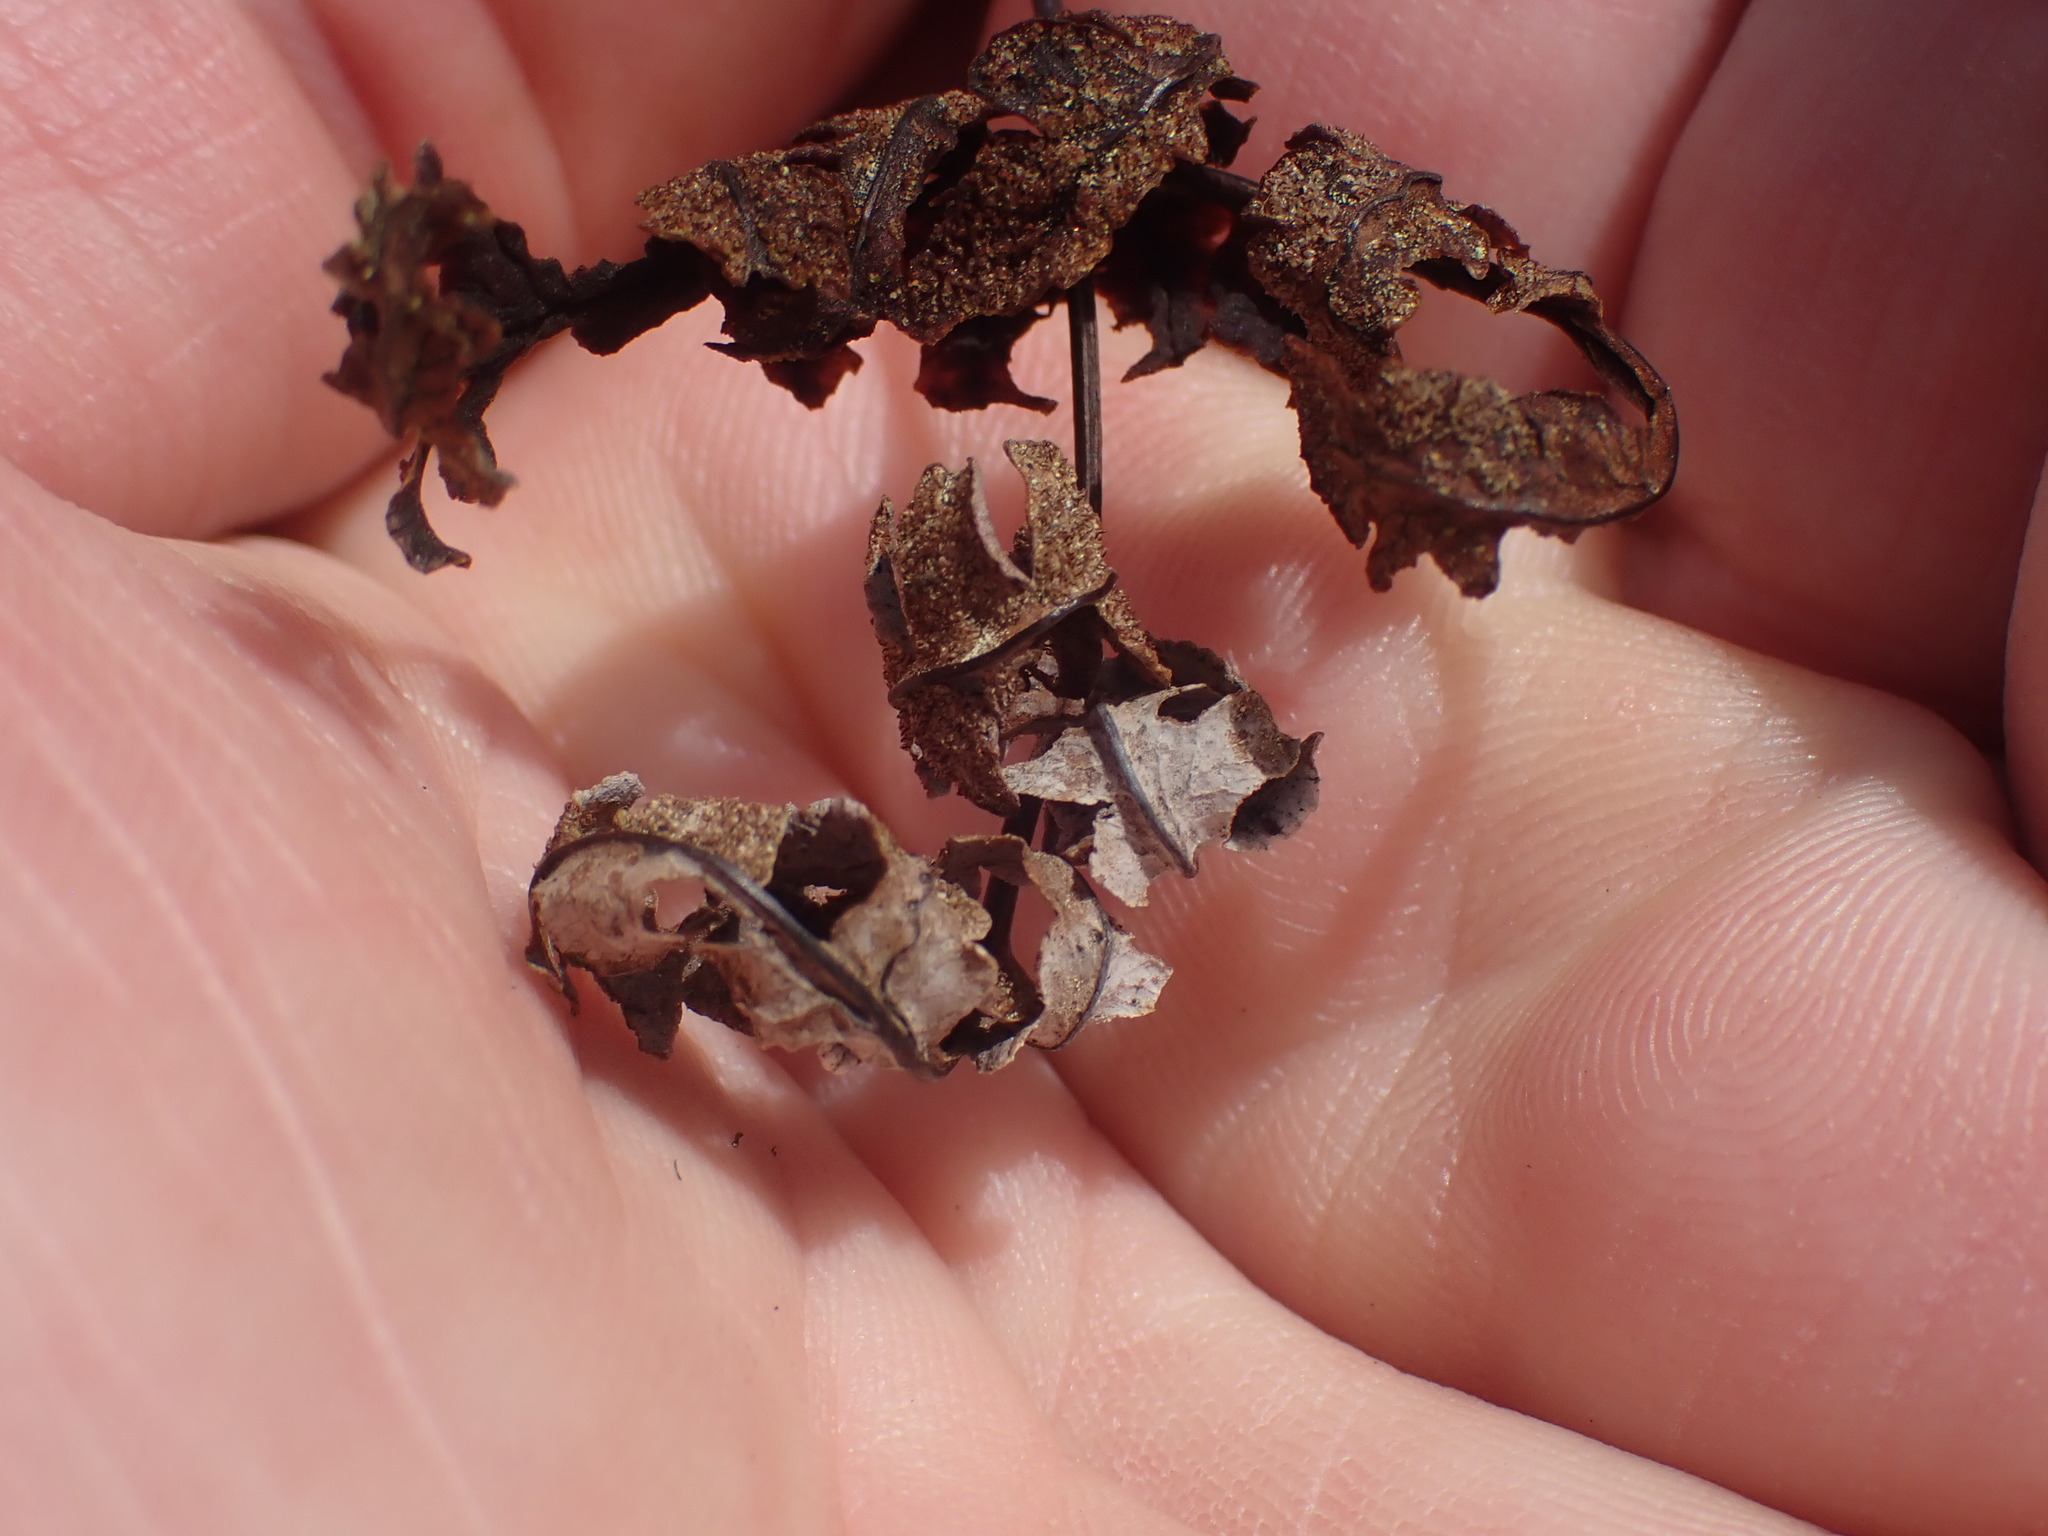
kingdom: Plantae
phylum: Tracheophyta
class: Polypodiopsida
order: Polypodiales
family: Pteridaceae
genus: Pentagramma
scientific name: Pentagramma triangularis
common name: Gold fern
